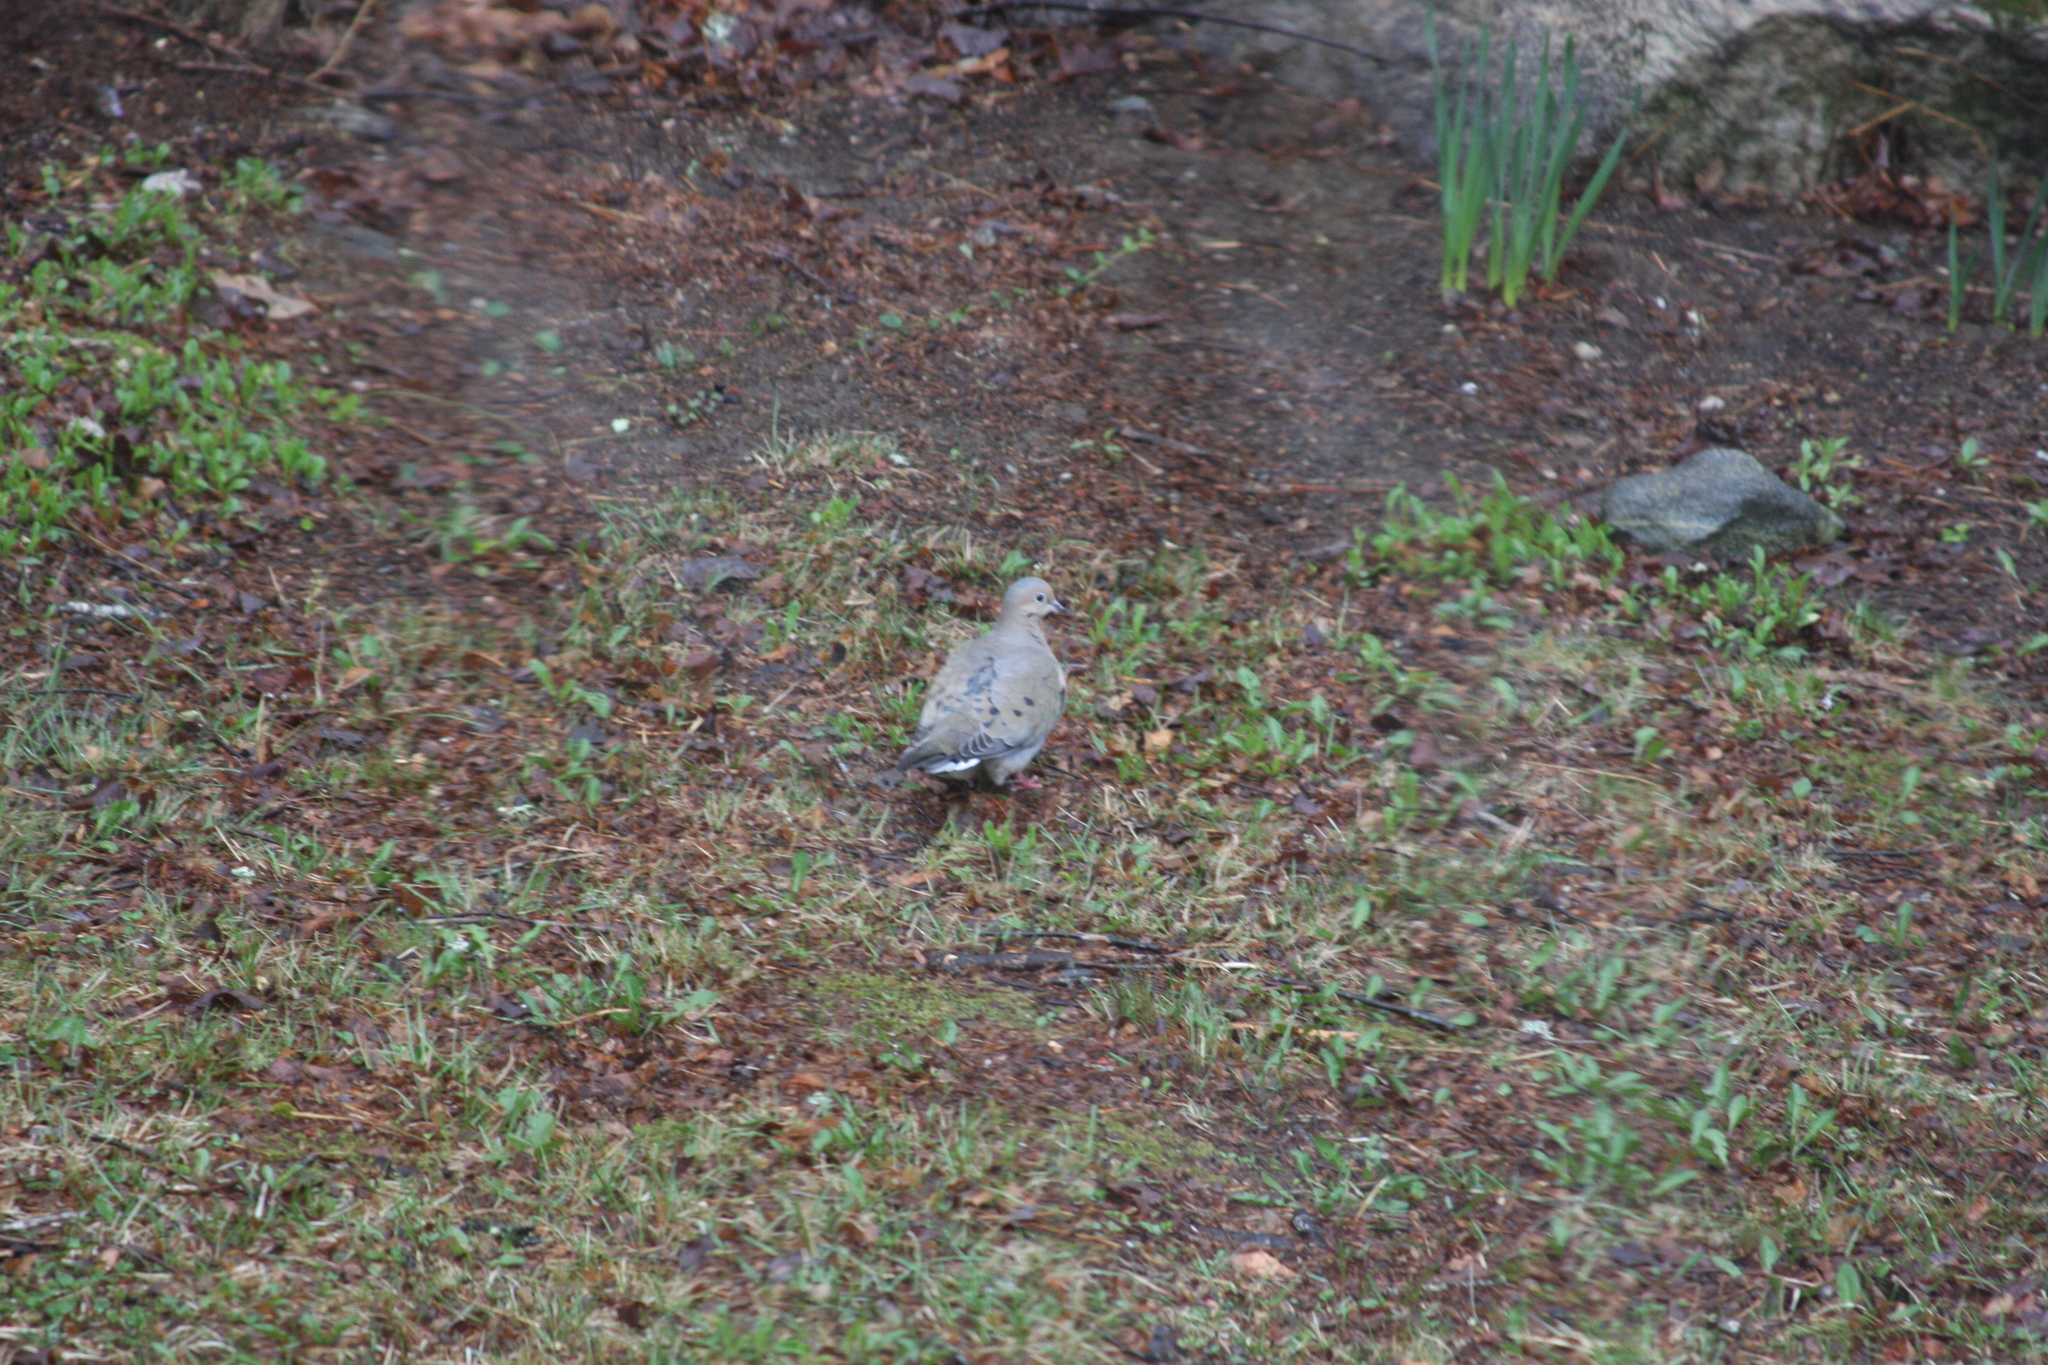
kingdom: Animalia
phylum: Chordata
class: Aves
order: Columbiformes
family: Columbidae
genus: Zenaida
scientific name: Zenaida macroura
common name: Mourning dove
